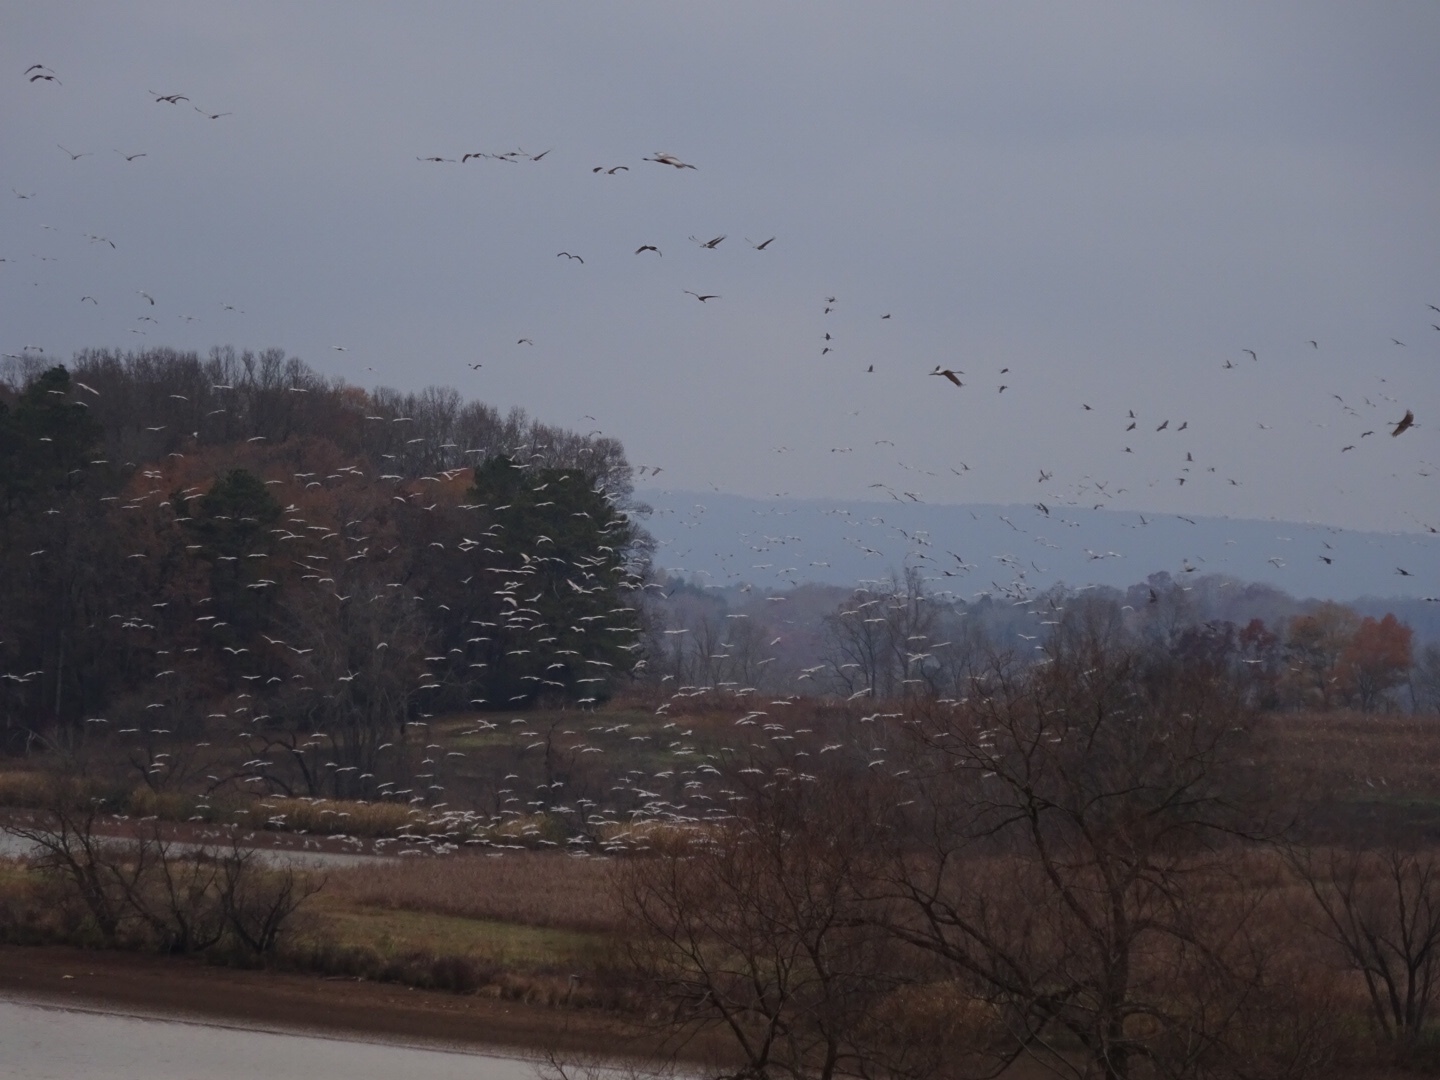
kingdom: Animalia
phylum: Chordata
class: Aves
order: Gruiformes
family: Gruidae
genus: Grus
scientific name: Grus canadensis
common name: Sandhill crane
